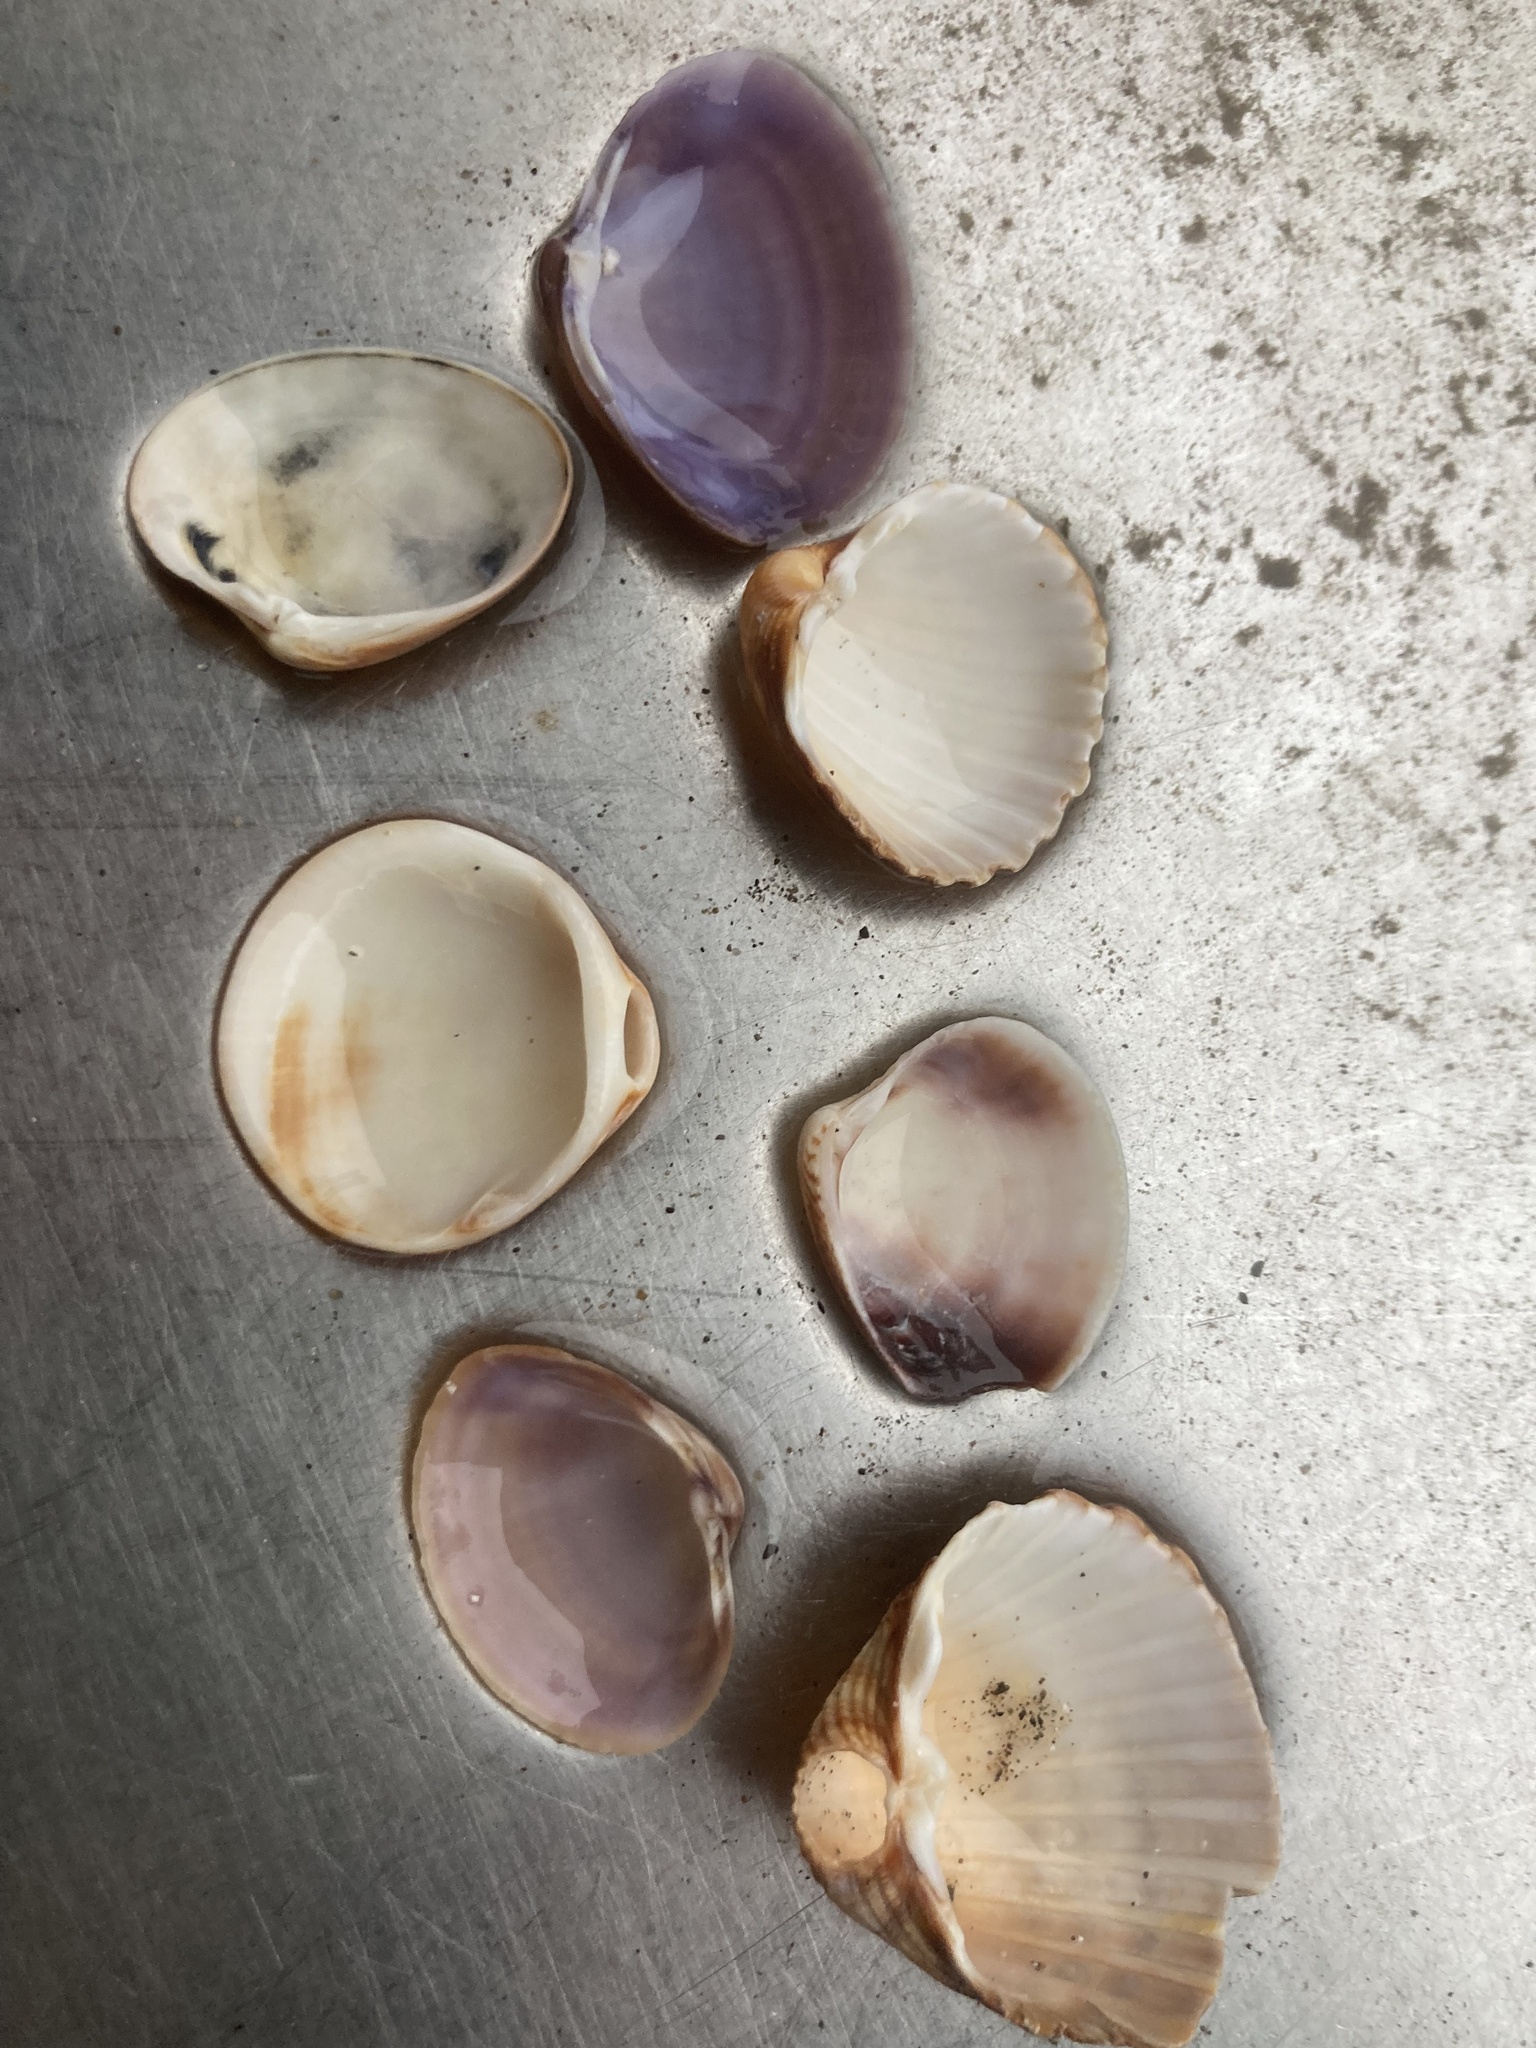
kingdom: Animalia
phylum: Mollusca
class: Bivalvia
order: Cardiida
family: Cardiidae
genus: Acanthocardia
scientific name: Acanthocardia tuberculata
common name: Rough cockle
